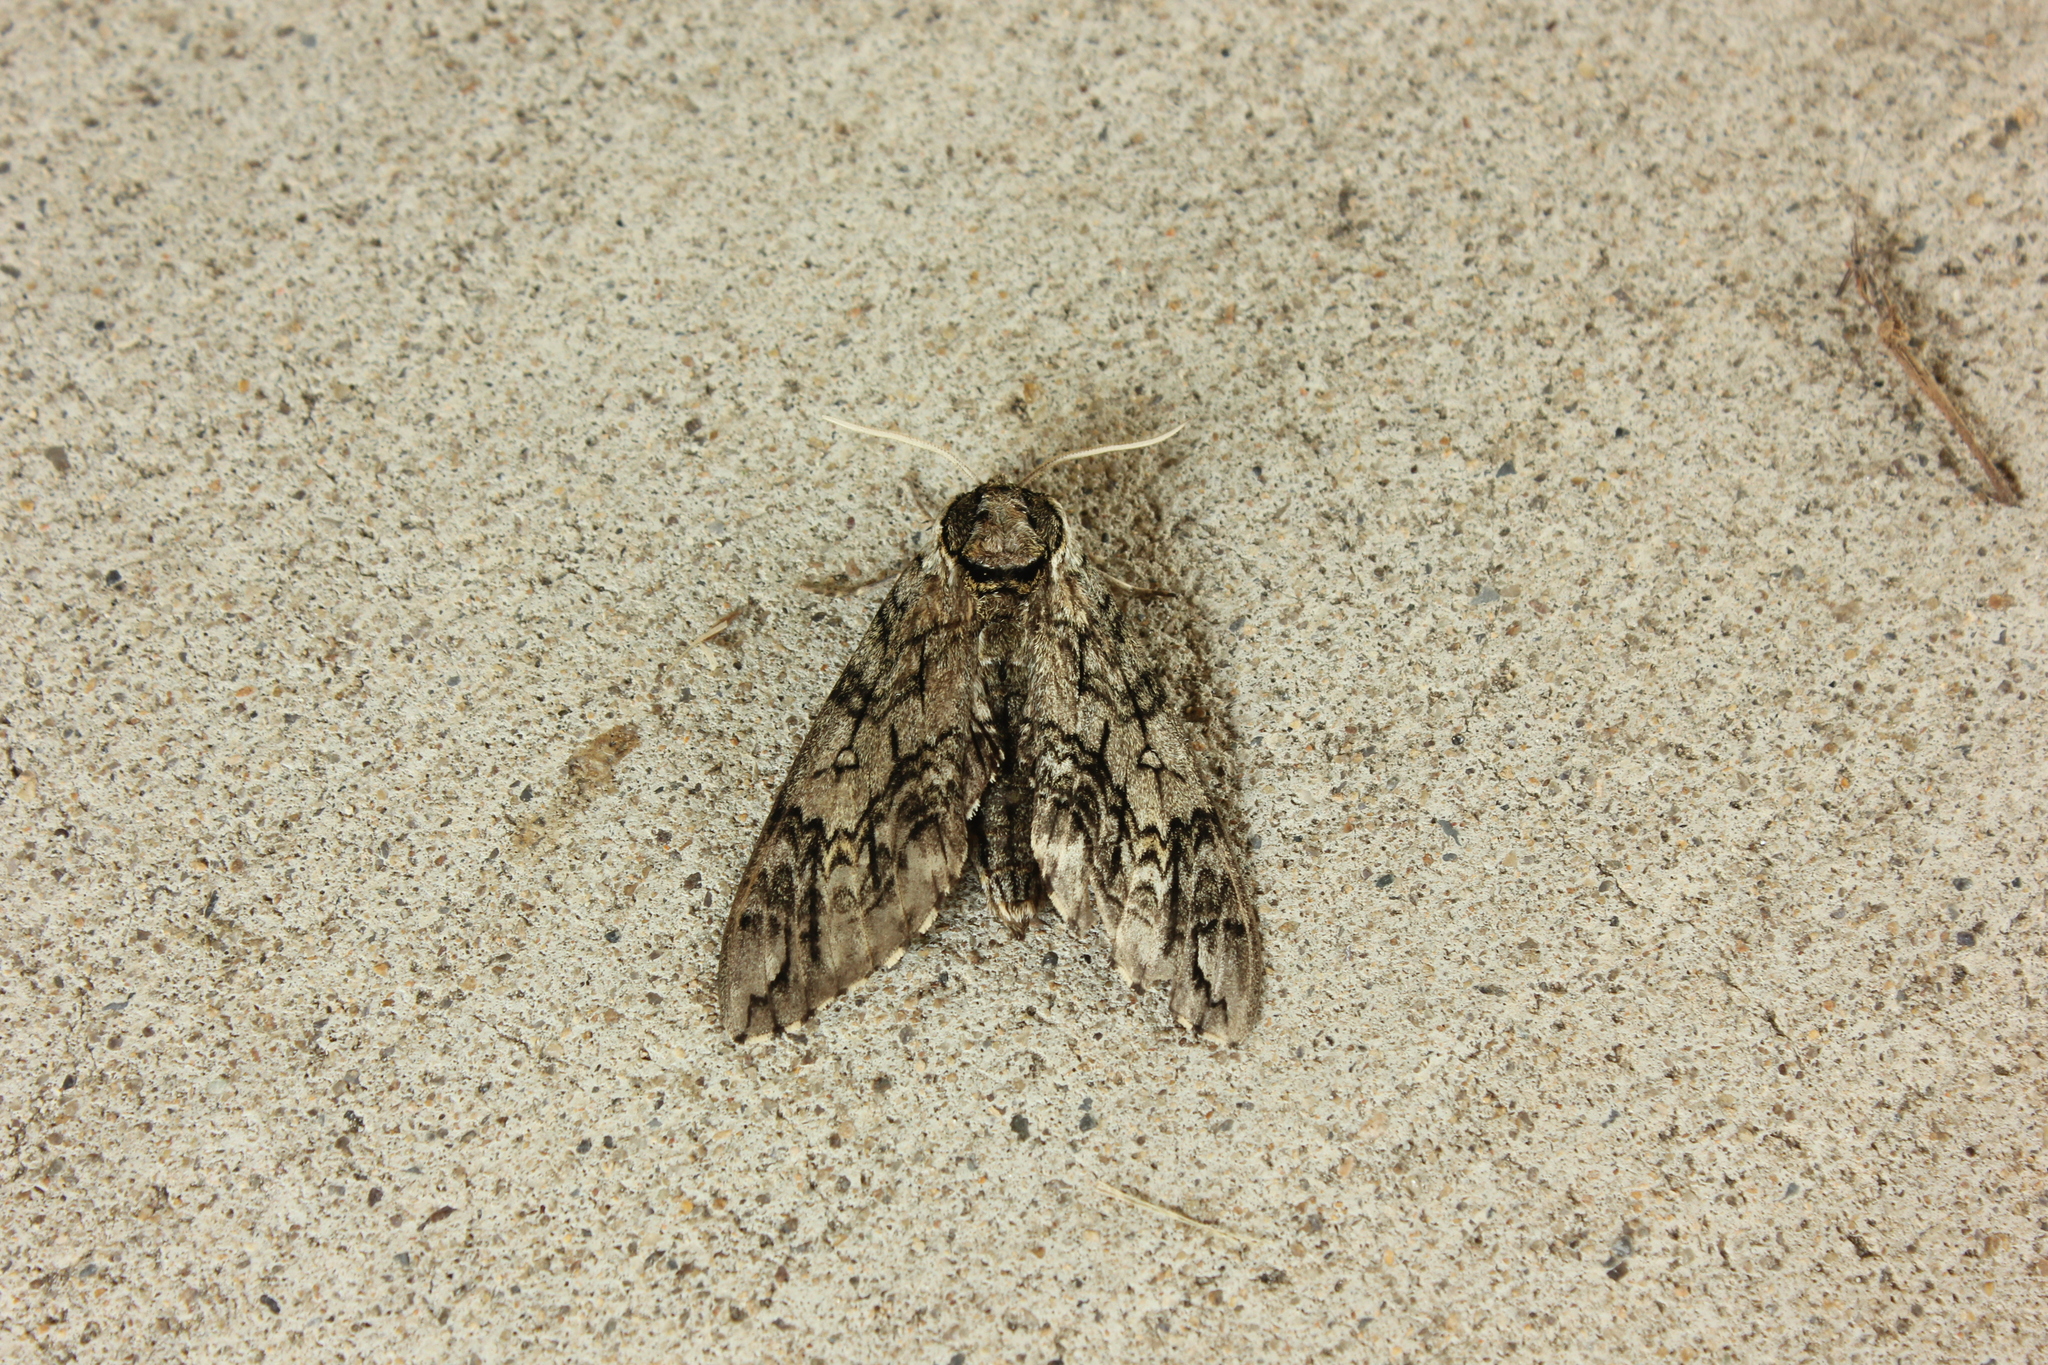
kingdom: Animalia
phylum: Arthropoda
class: Insecta
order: Lepidoptera
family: Sphingidae
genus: Ceratomia
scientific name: Ceratomia undulosa
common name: Waved sphinx
